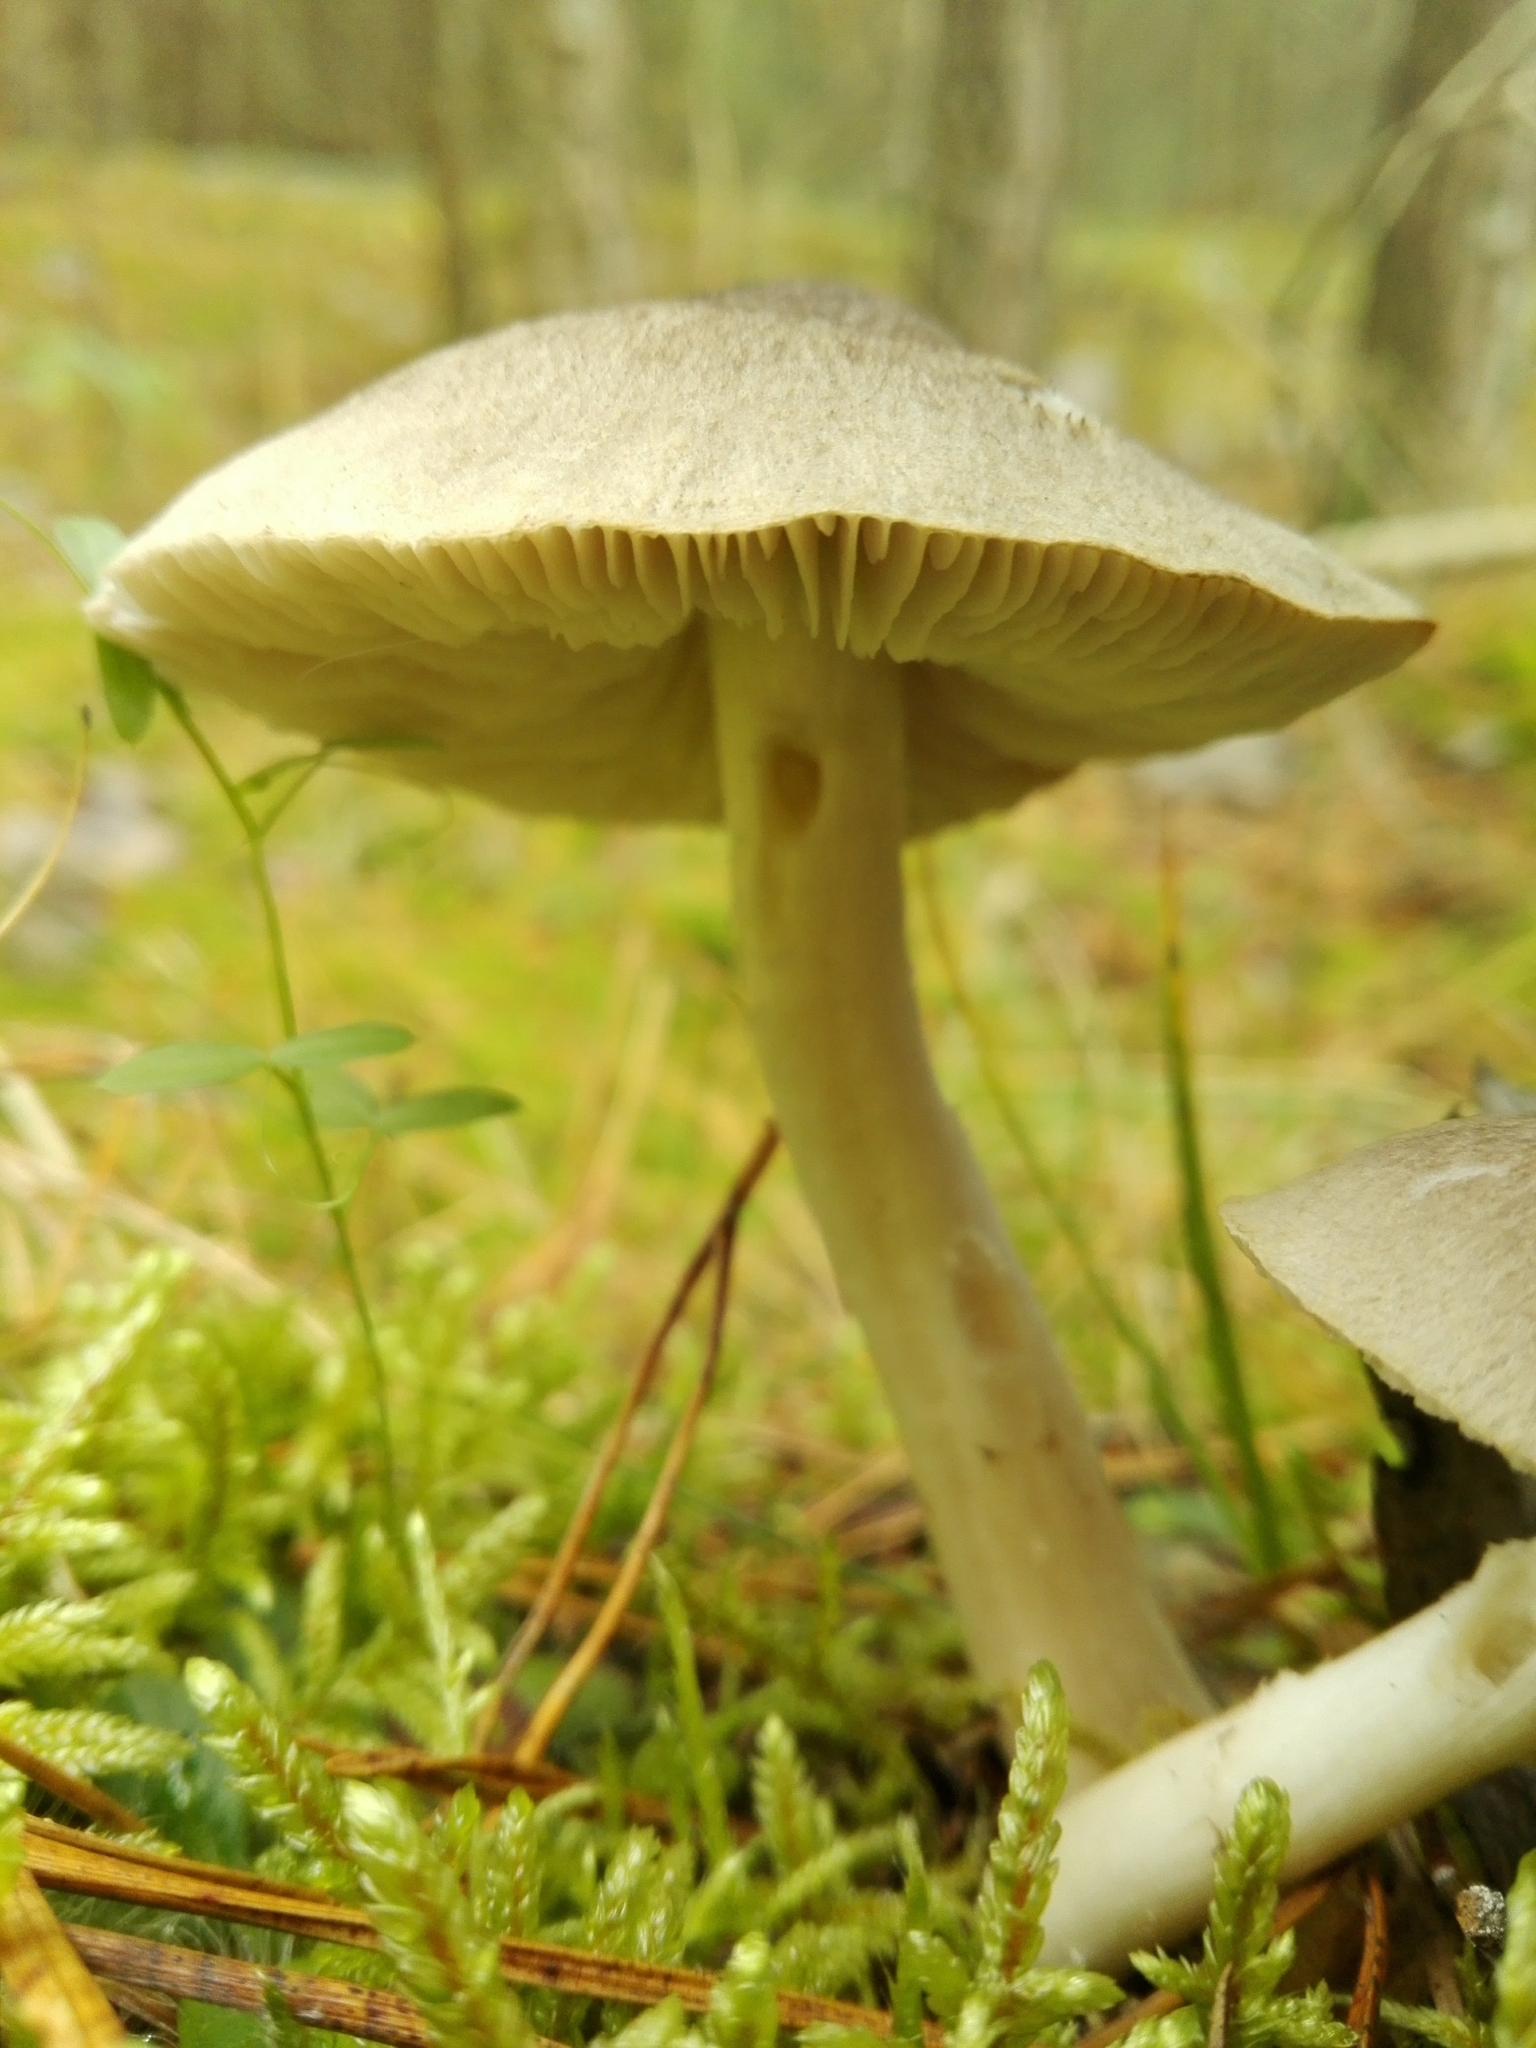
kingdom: Fungi
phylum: Basidiomycota
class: Agaricomycetes
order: Agaricales
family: Tricholomataceae
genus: Tricholoma
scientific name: Tricholoma terreum
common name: Grey knight
